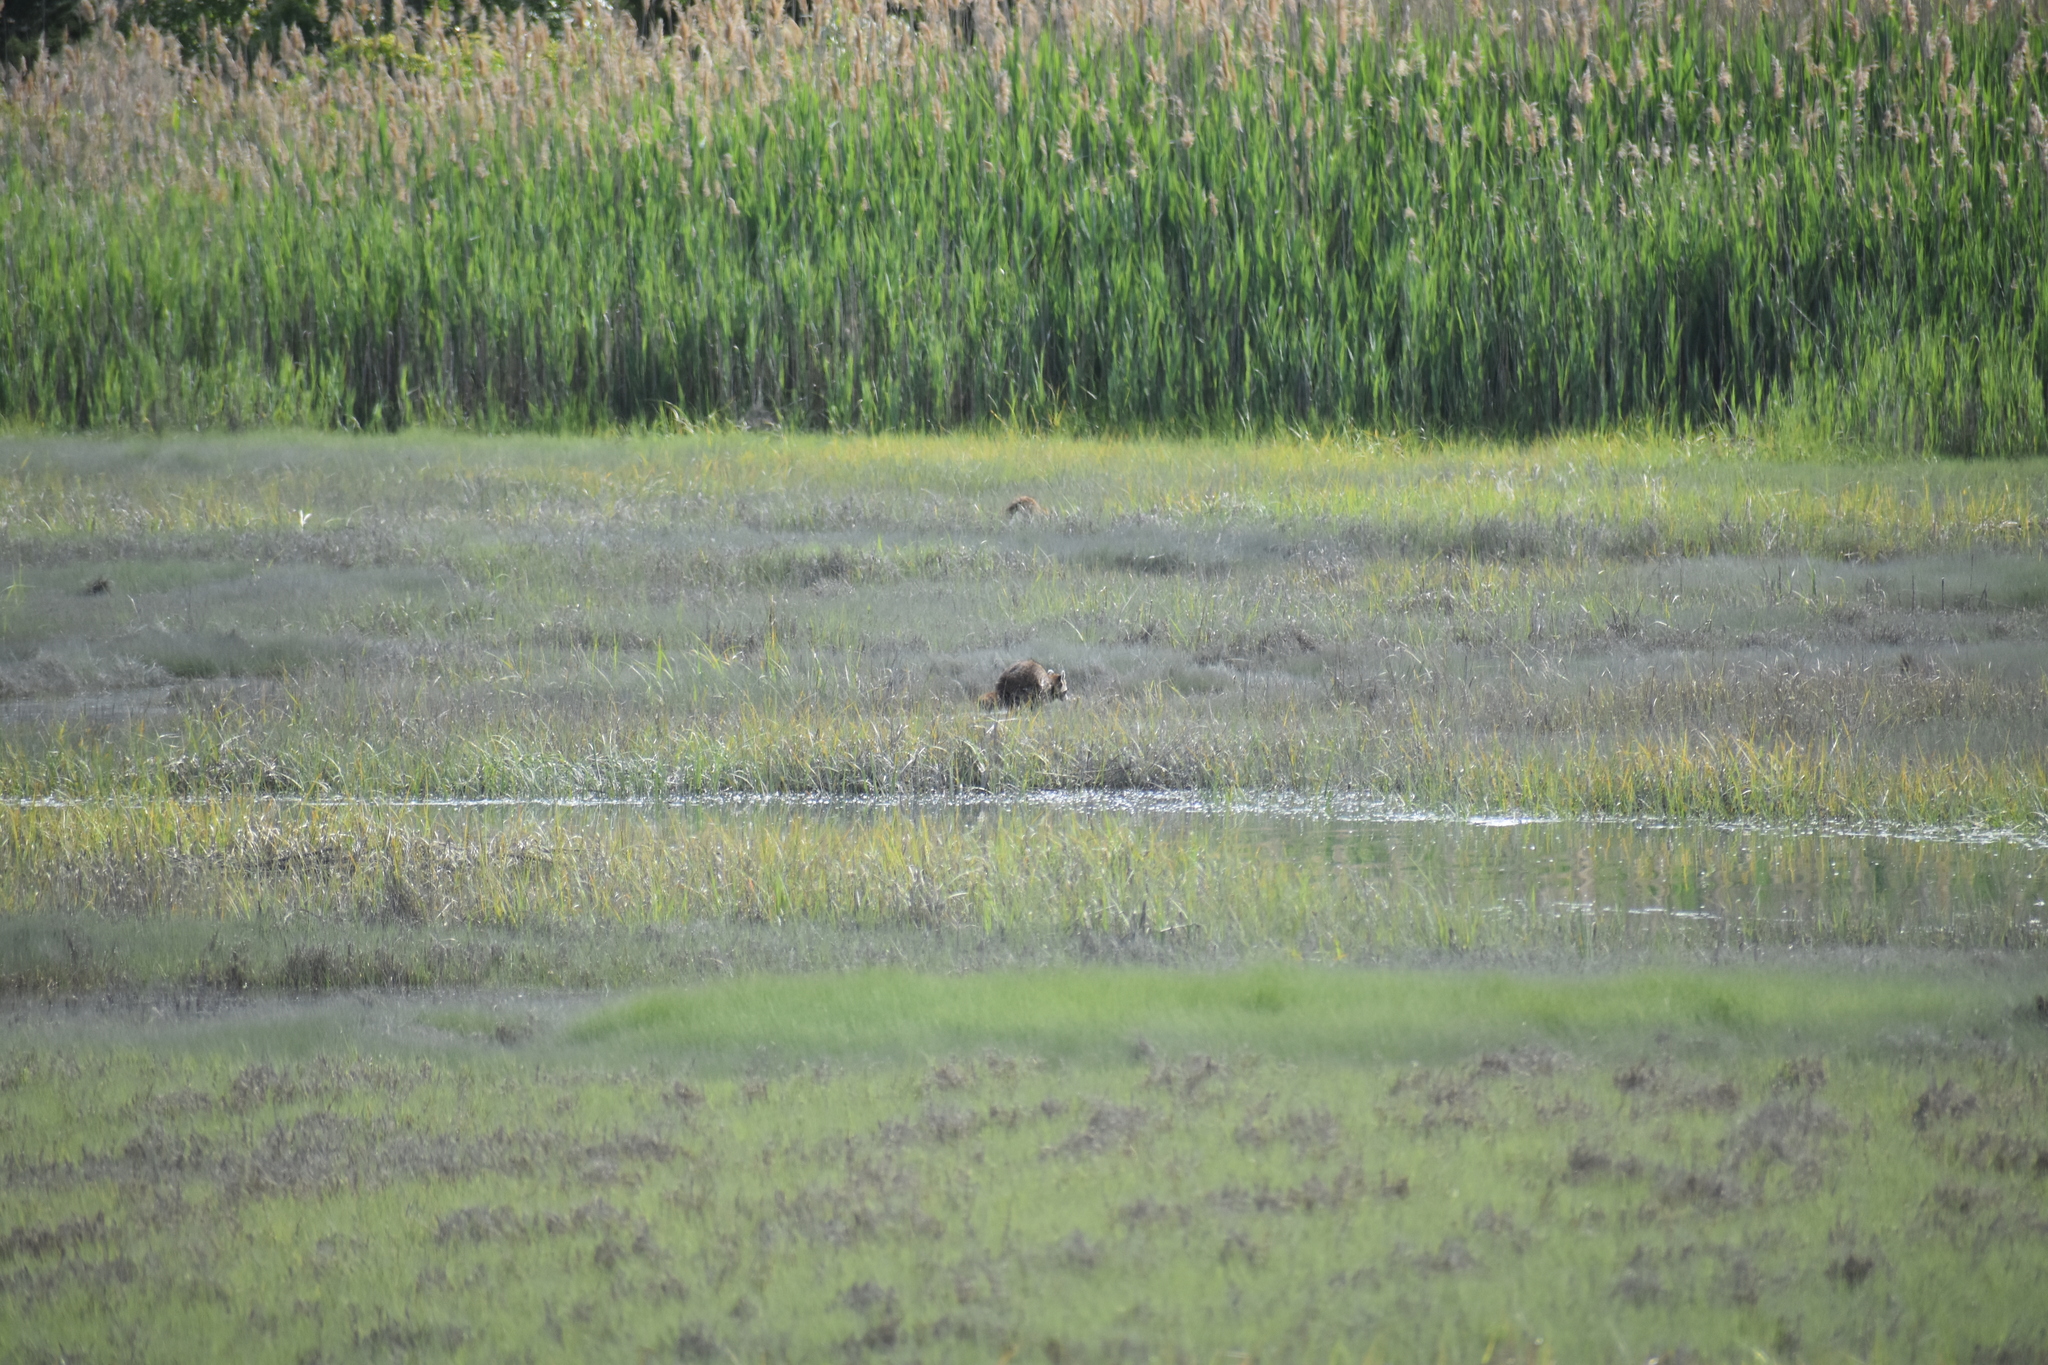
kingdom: Animalia
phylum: Chordata
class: Mammalia
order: Carnivora
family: Procyonidae
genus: Procyon
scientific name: Procyon lotor
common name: Raccoon
